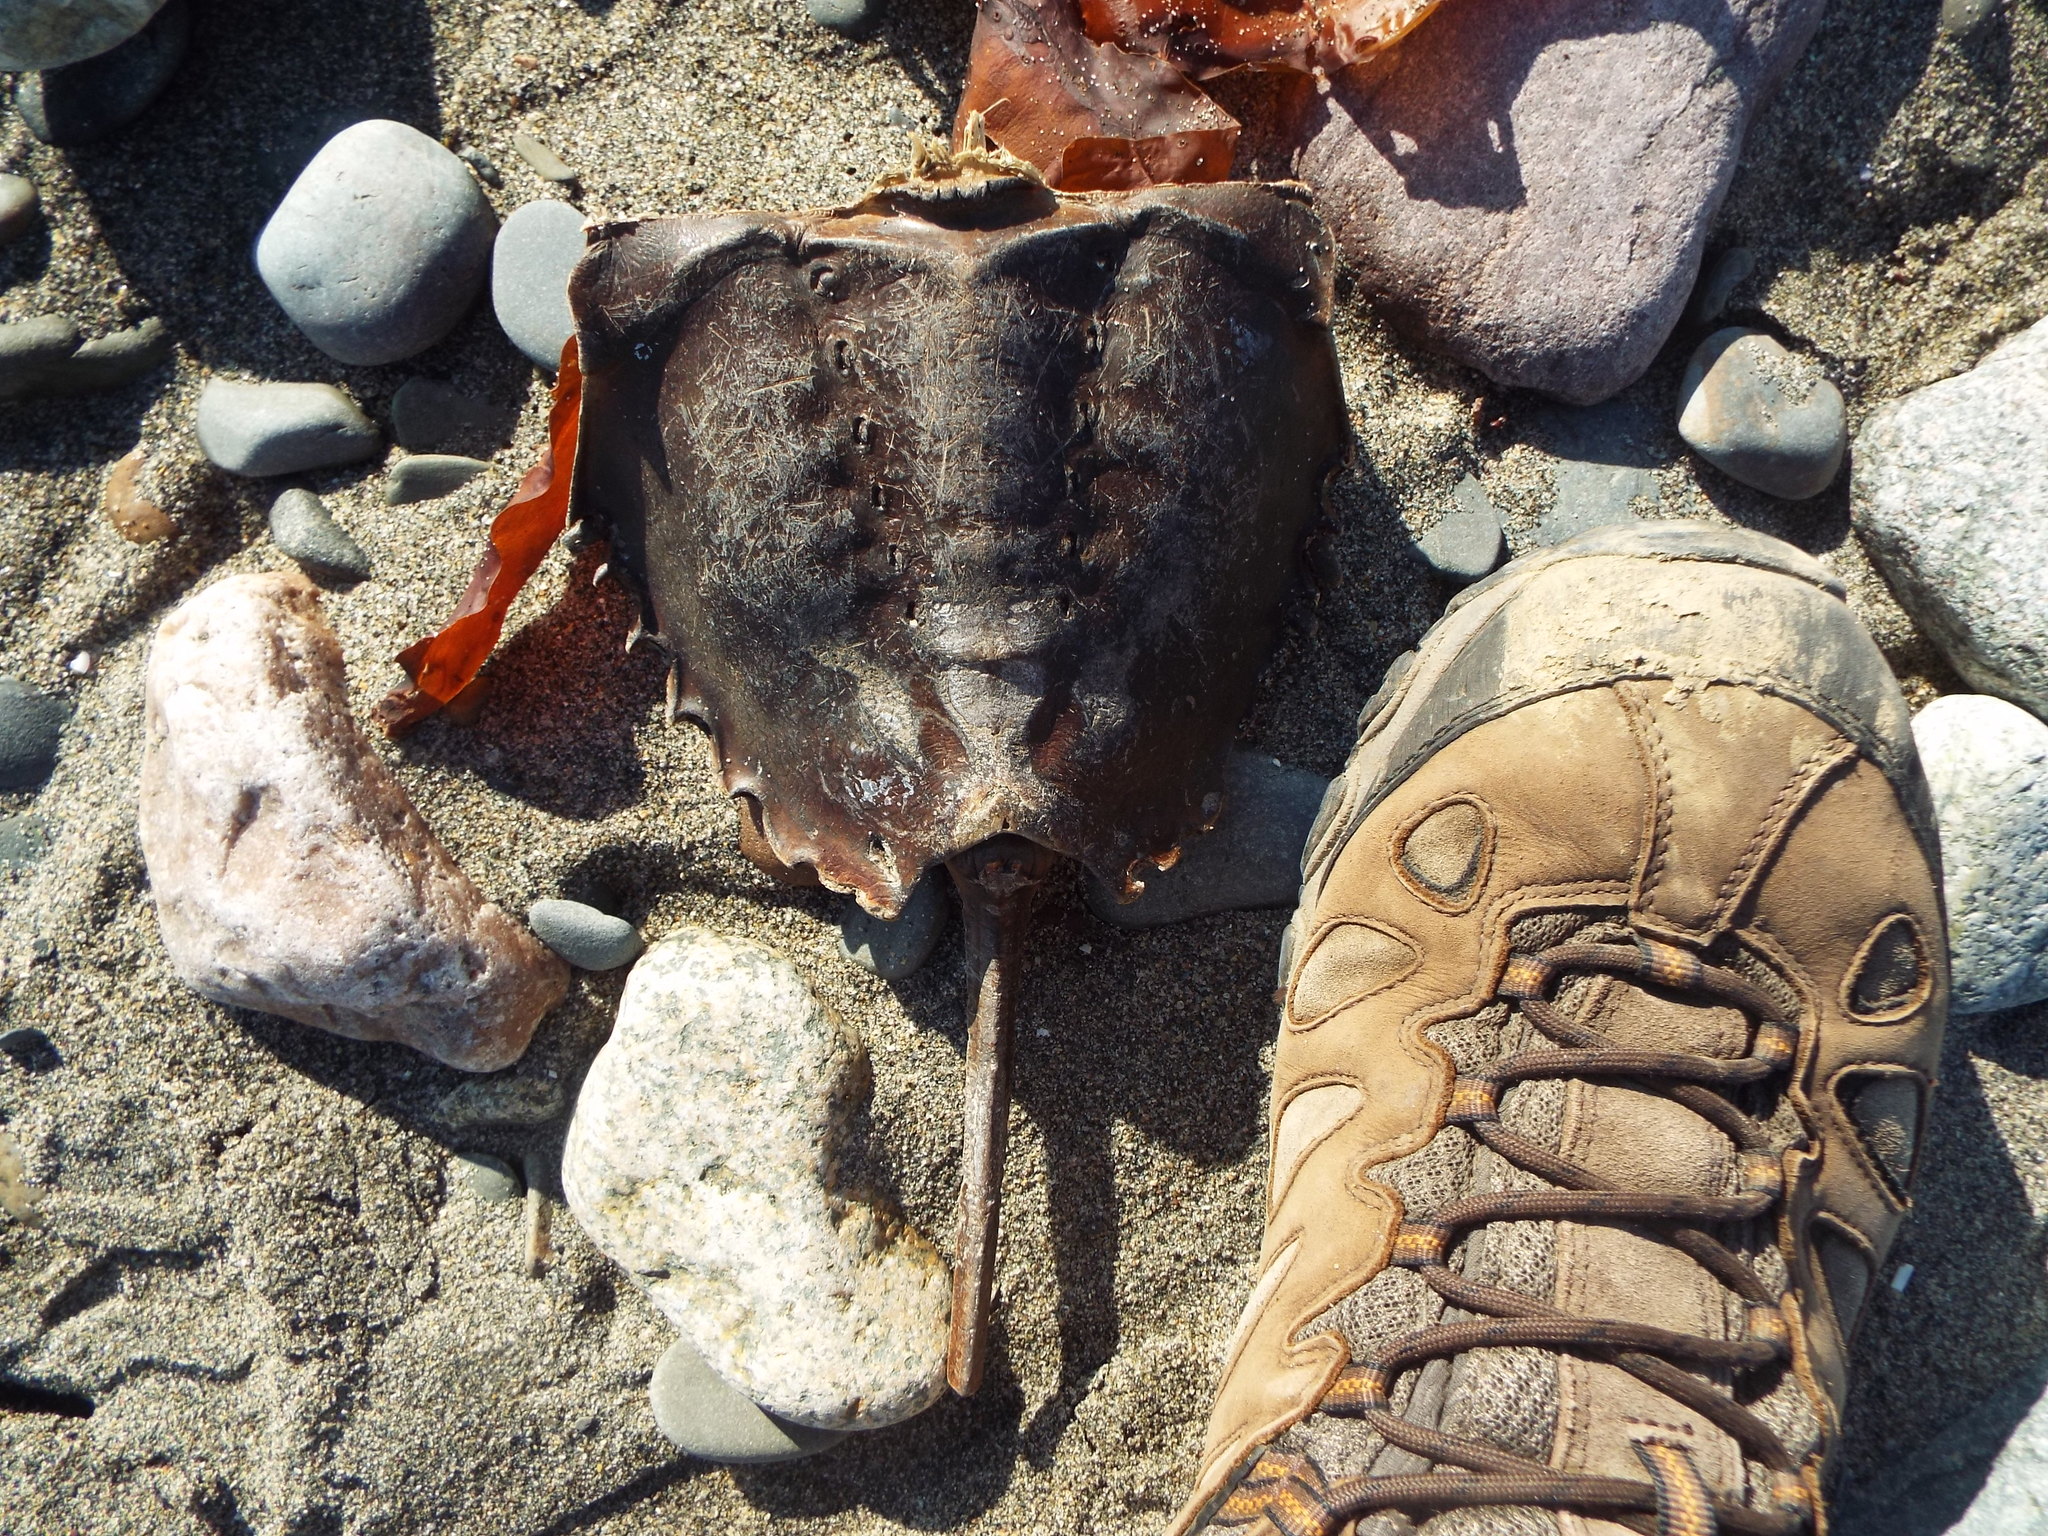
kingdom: Animalia
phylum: Arthropoda
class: Merostomata
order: Xiphosurida
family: Limulidae
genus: Limulus
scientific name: Limulus polyphemus
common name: Horseshoe crab
